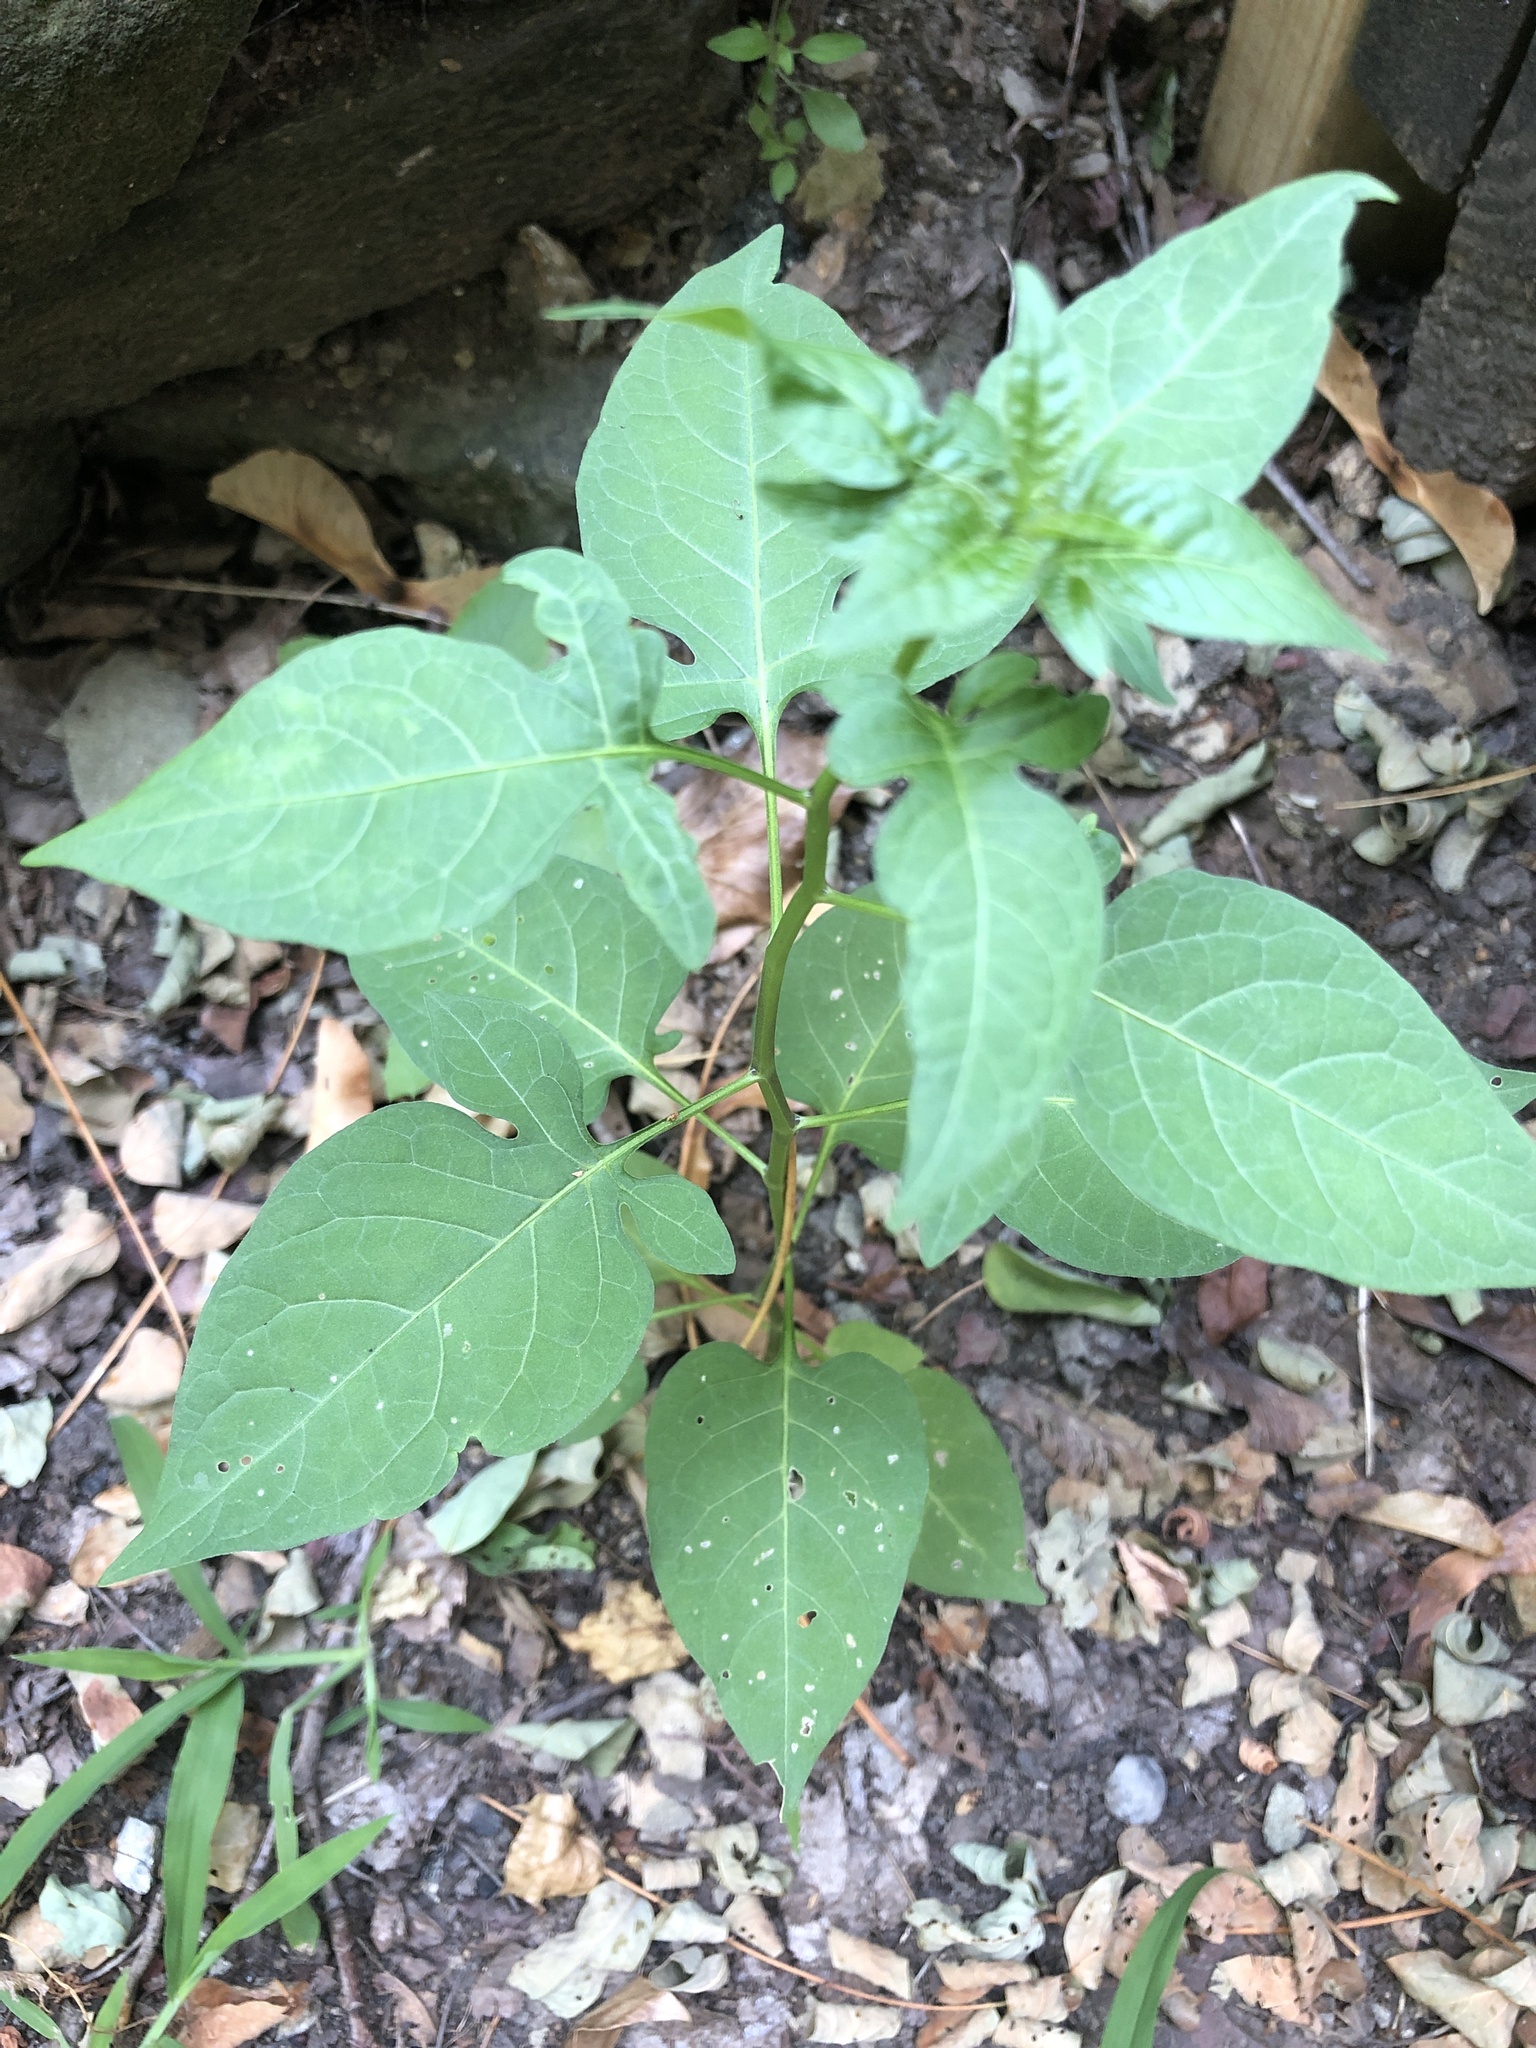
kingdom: Plantae
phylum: Tracheophyta
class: Magnoliopsida
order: Solanales
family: Solanaceae
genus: Solanum
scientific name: Solanum dulcamara
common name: Climbing nightshade
